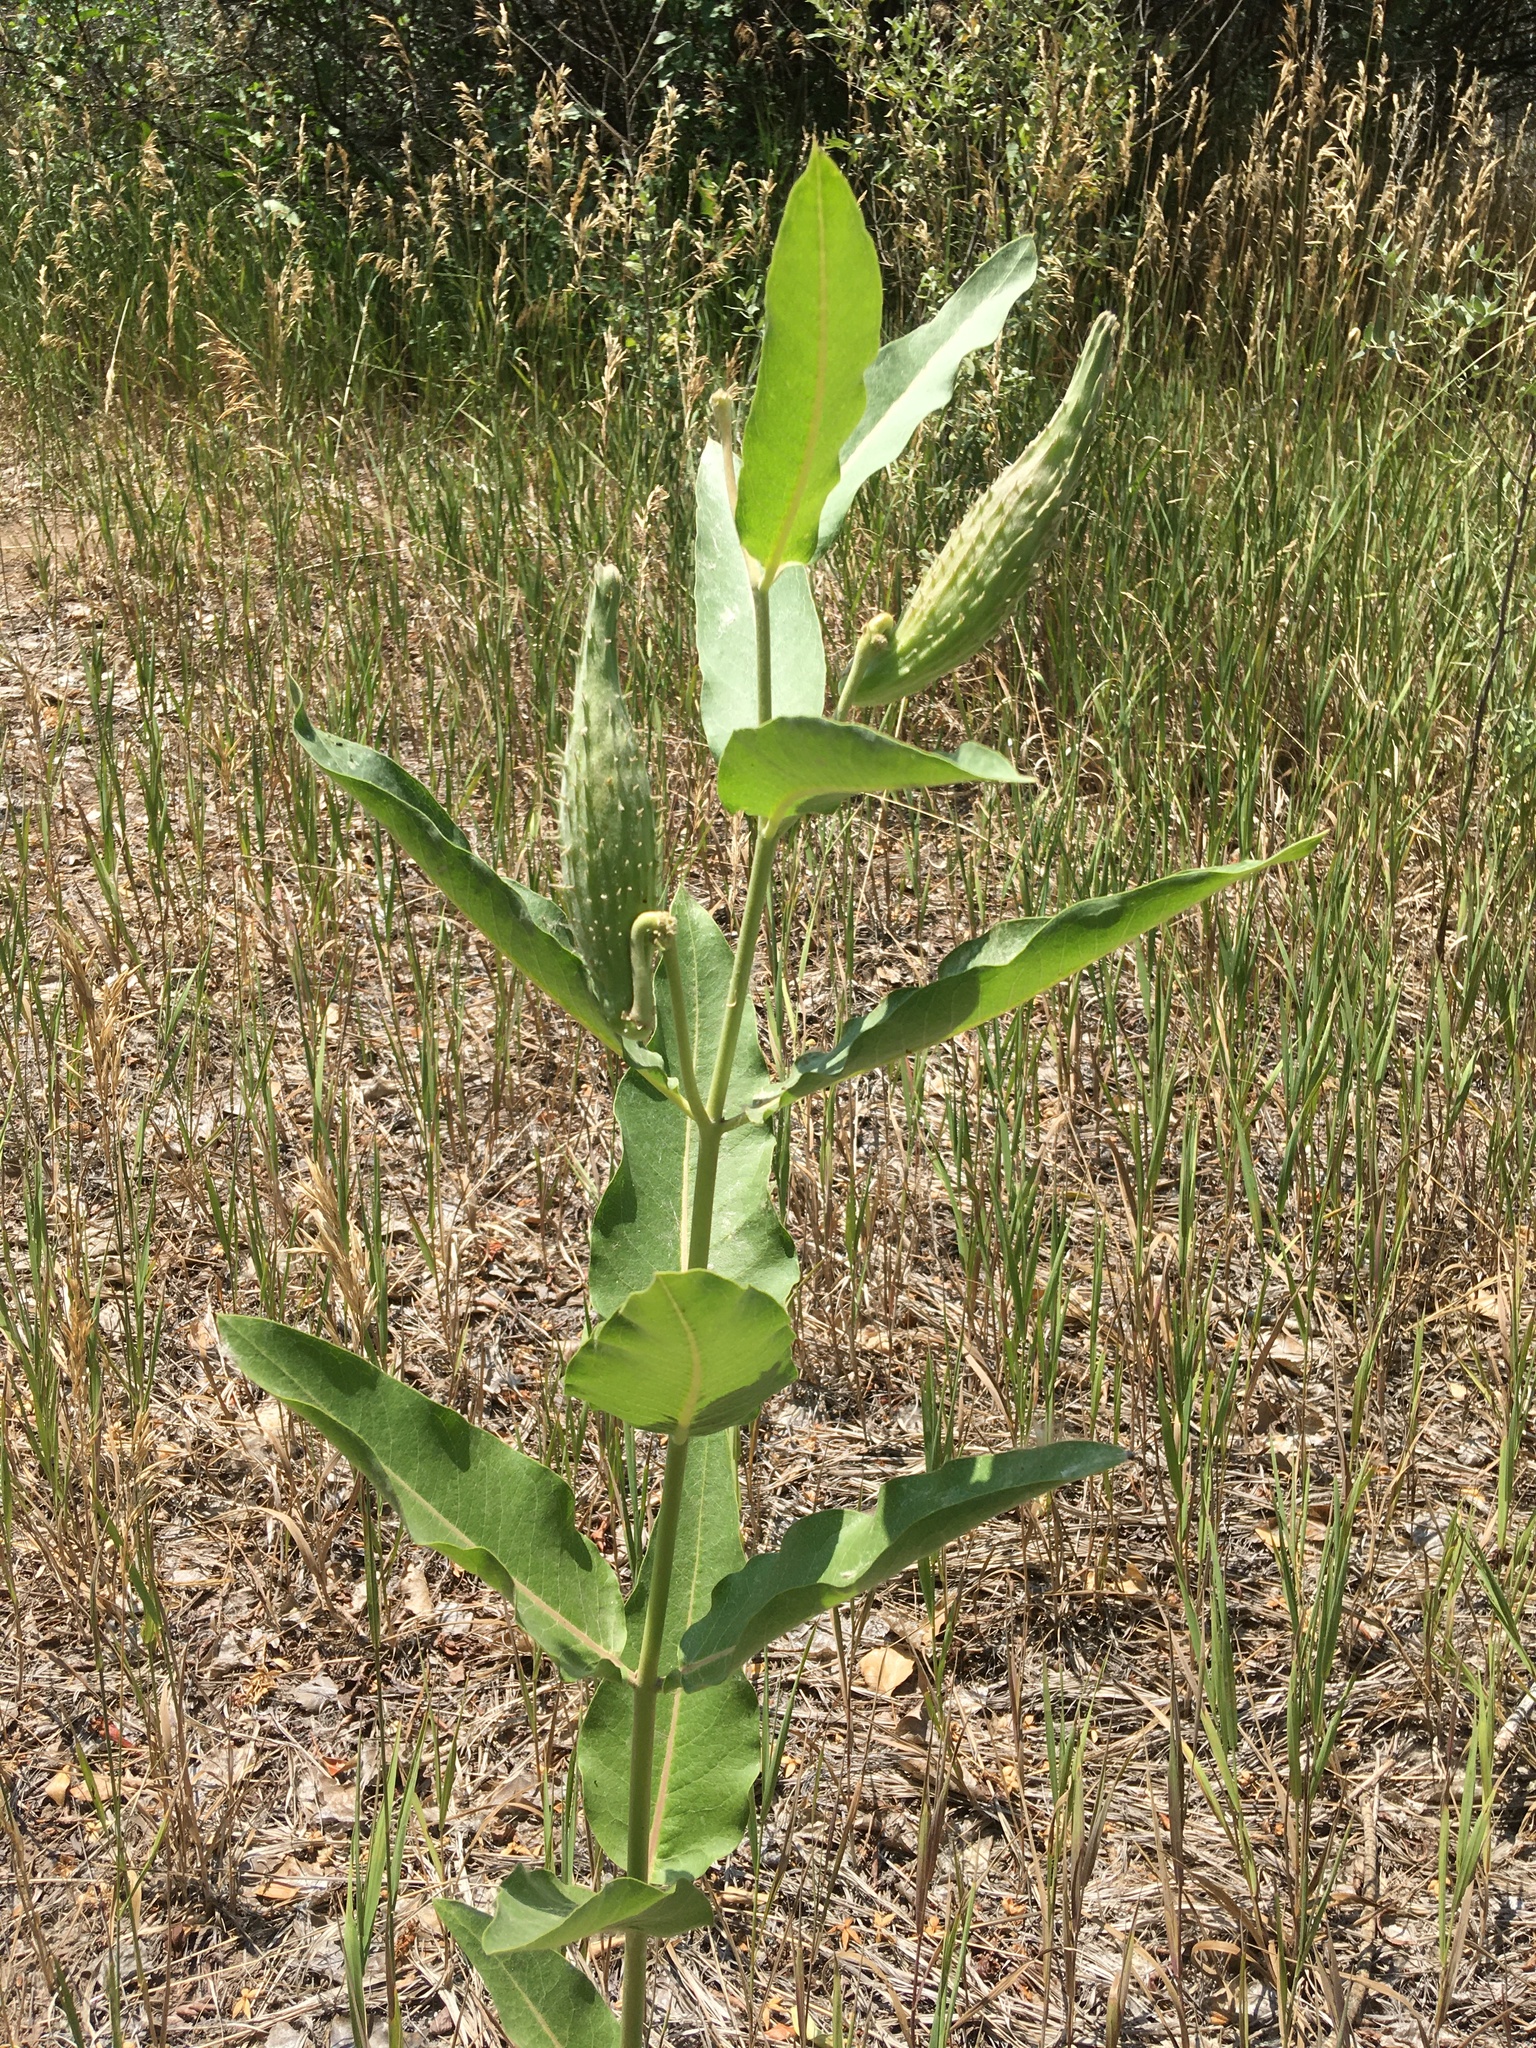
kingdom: Plantae
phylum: Tracheophyta
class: Magnoliopsida
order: Gentianales
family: Apocynaceae
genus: Asclepias
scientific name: Asclepias speciosa
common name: Showy milkweed
